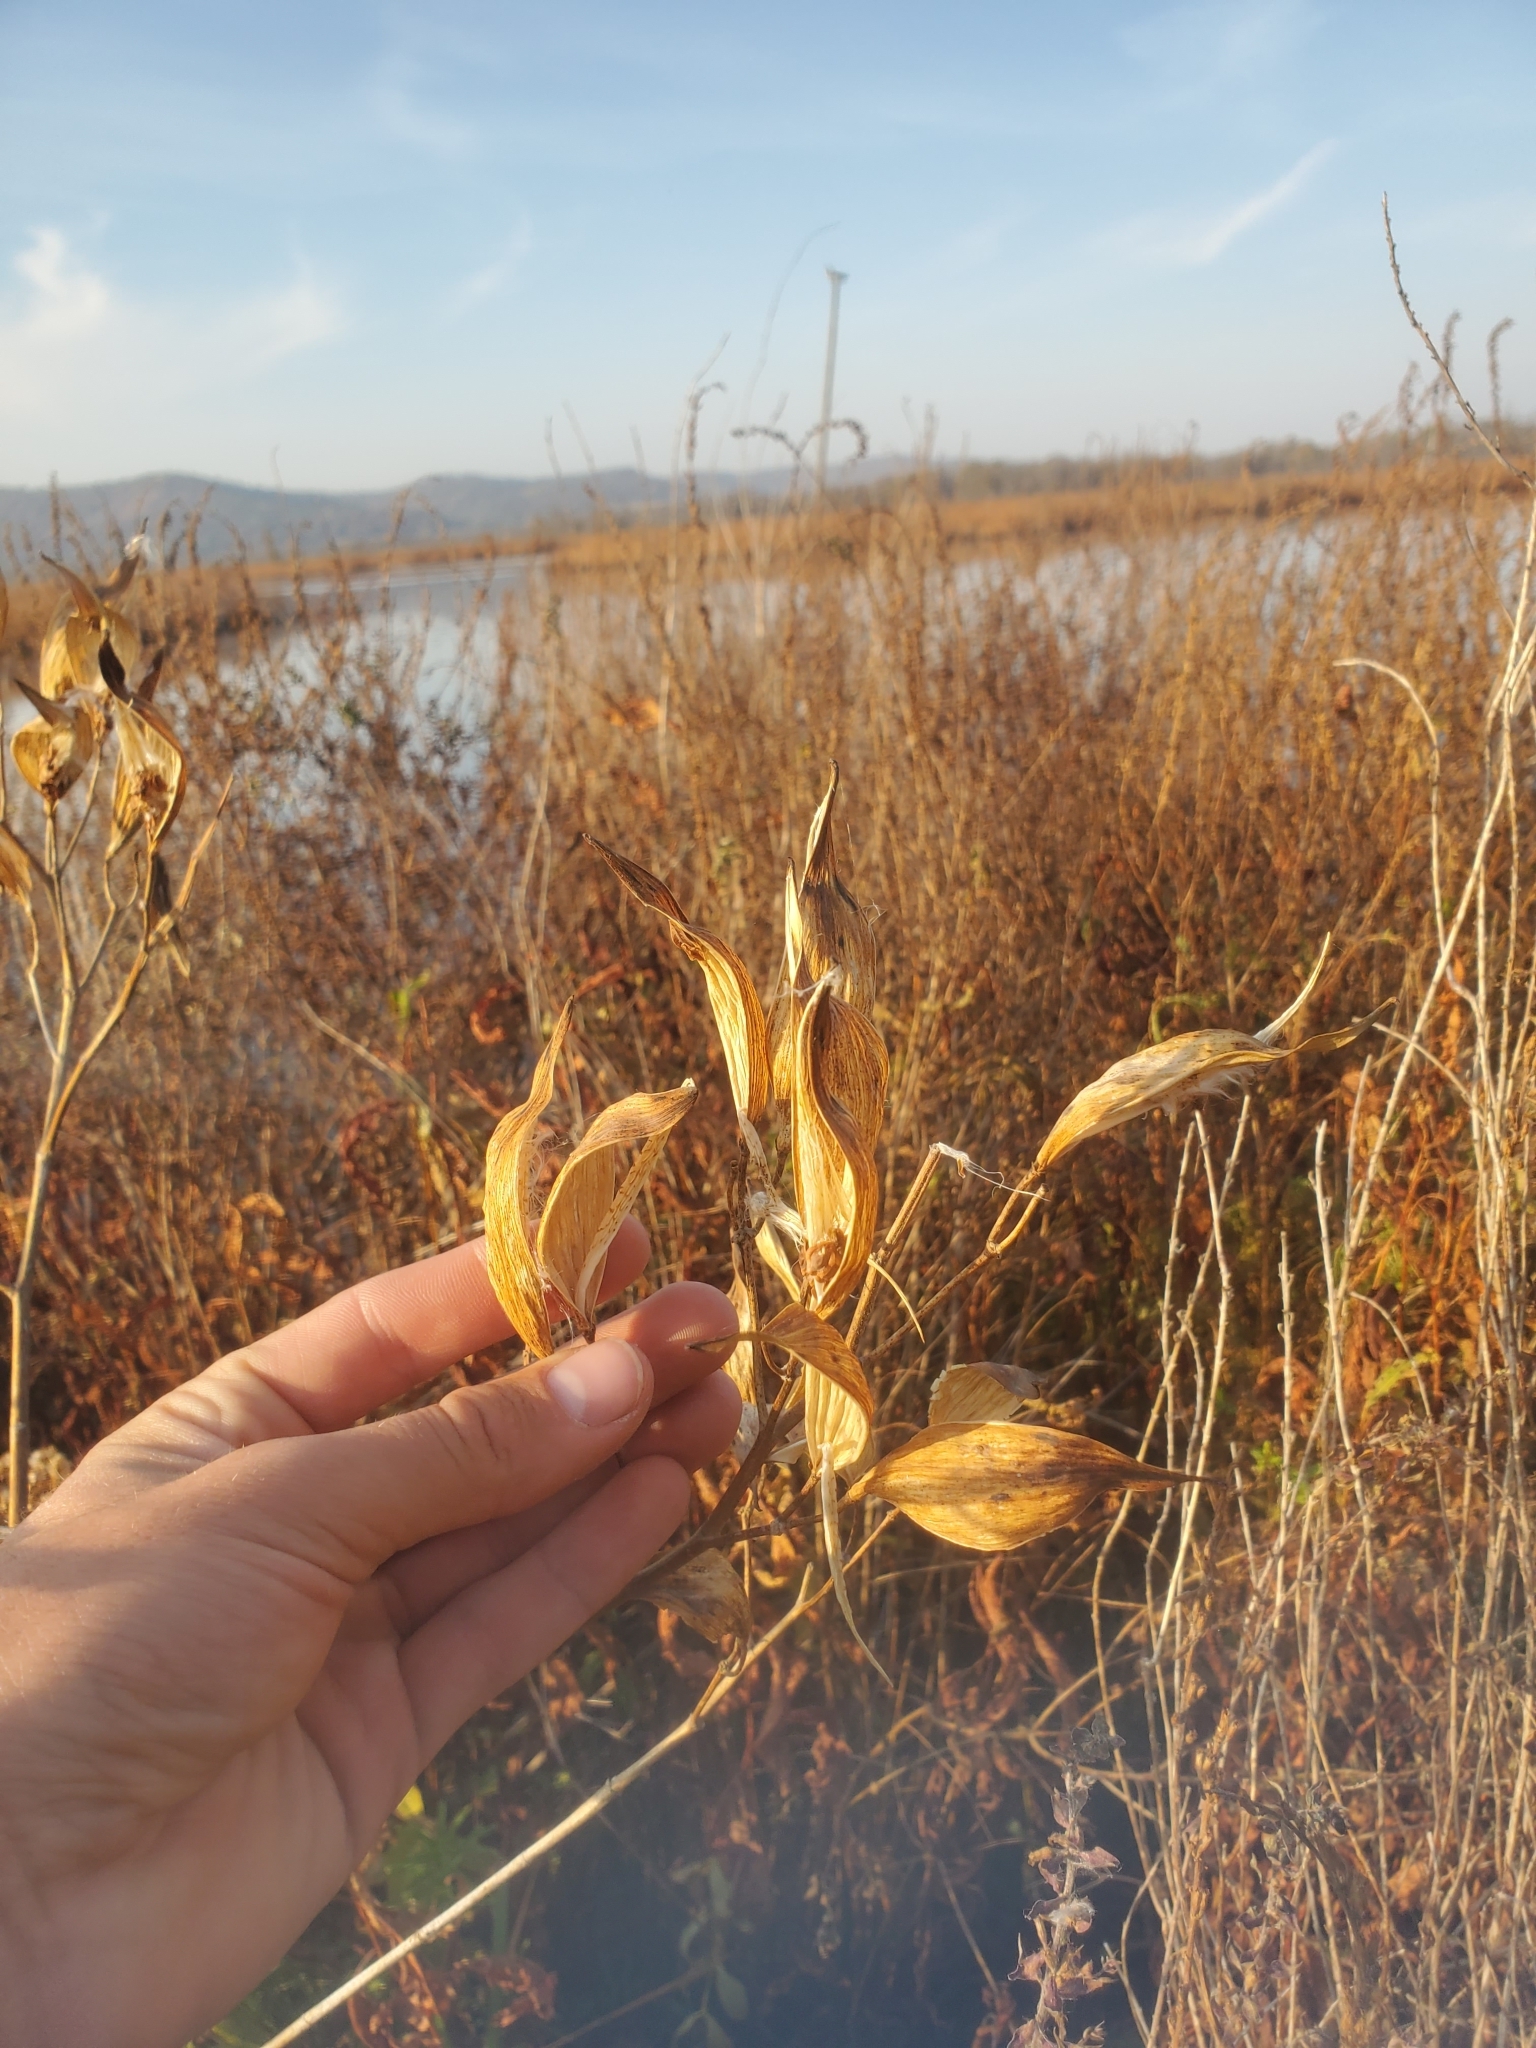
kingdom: Plantae
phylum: Tracheophyta
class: Magnoliopsida
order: Gentianales
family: Apocynaceae
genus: Asclepias
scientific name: Asclepias incarnata
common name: Swamp milkweed
